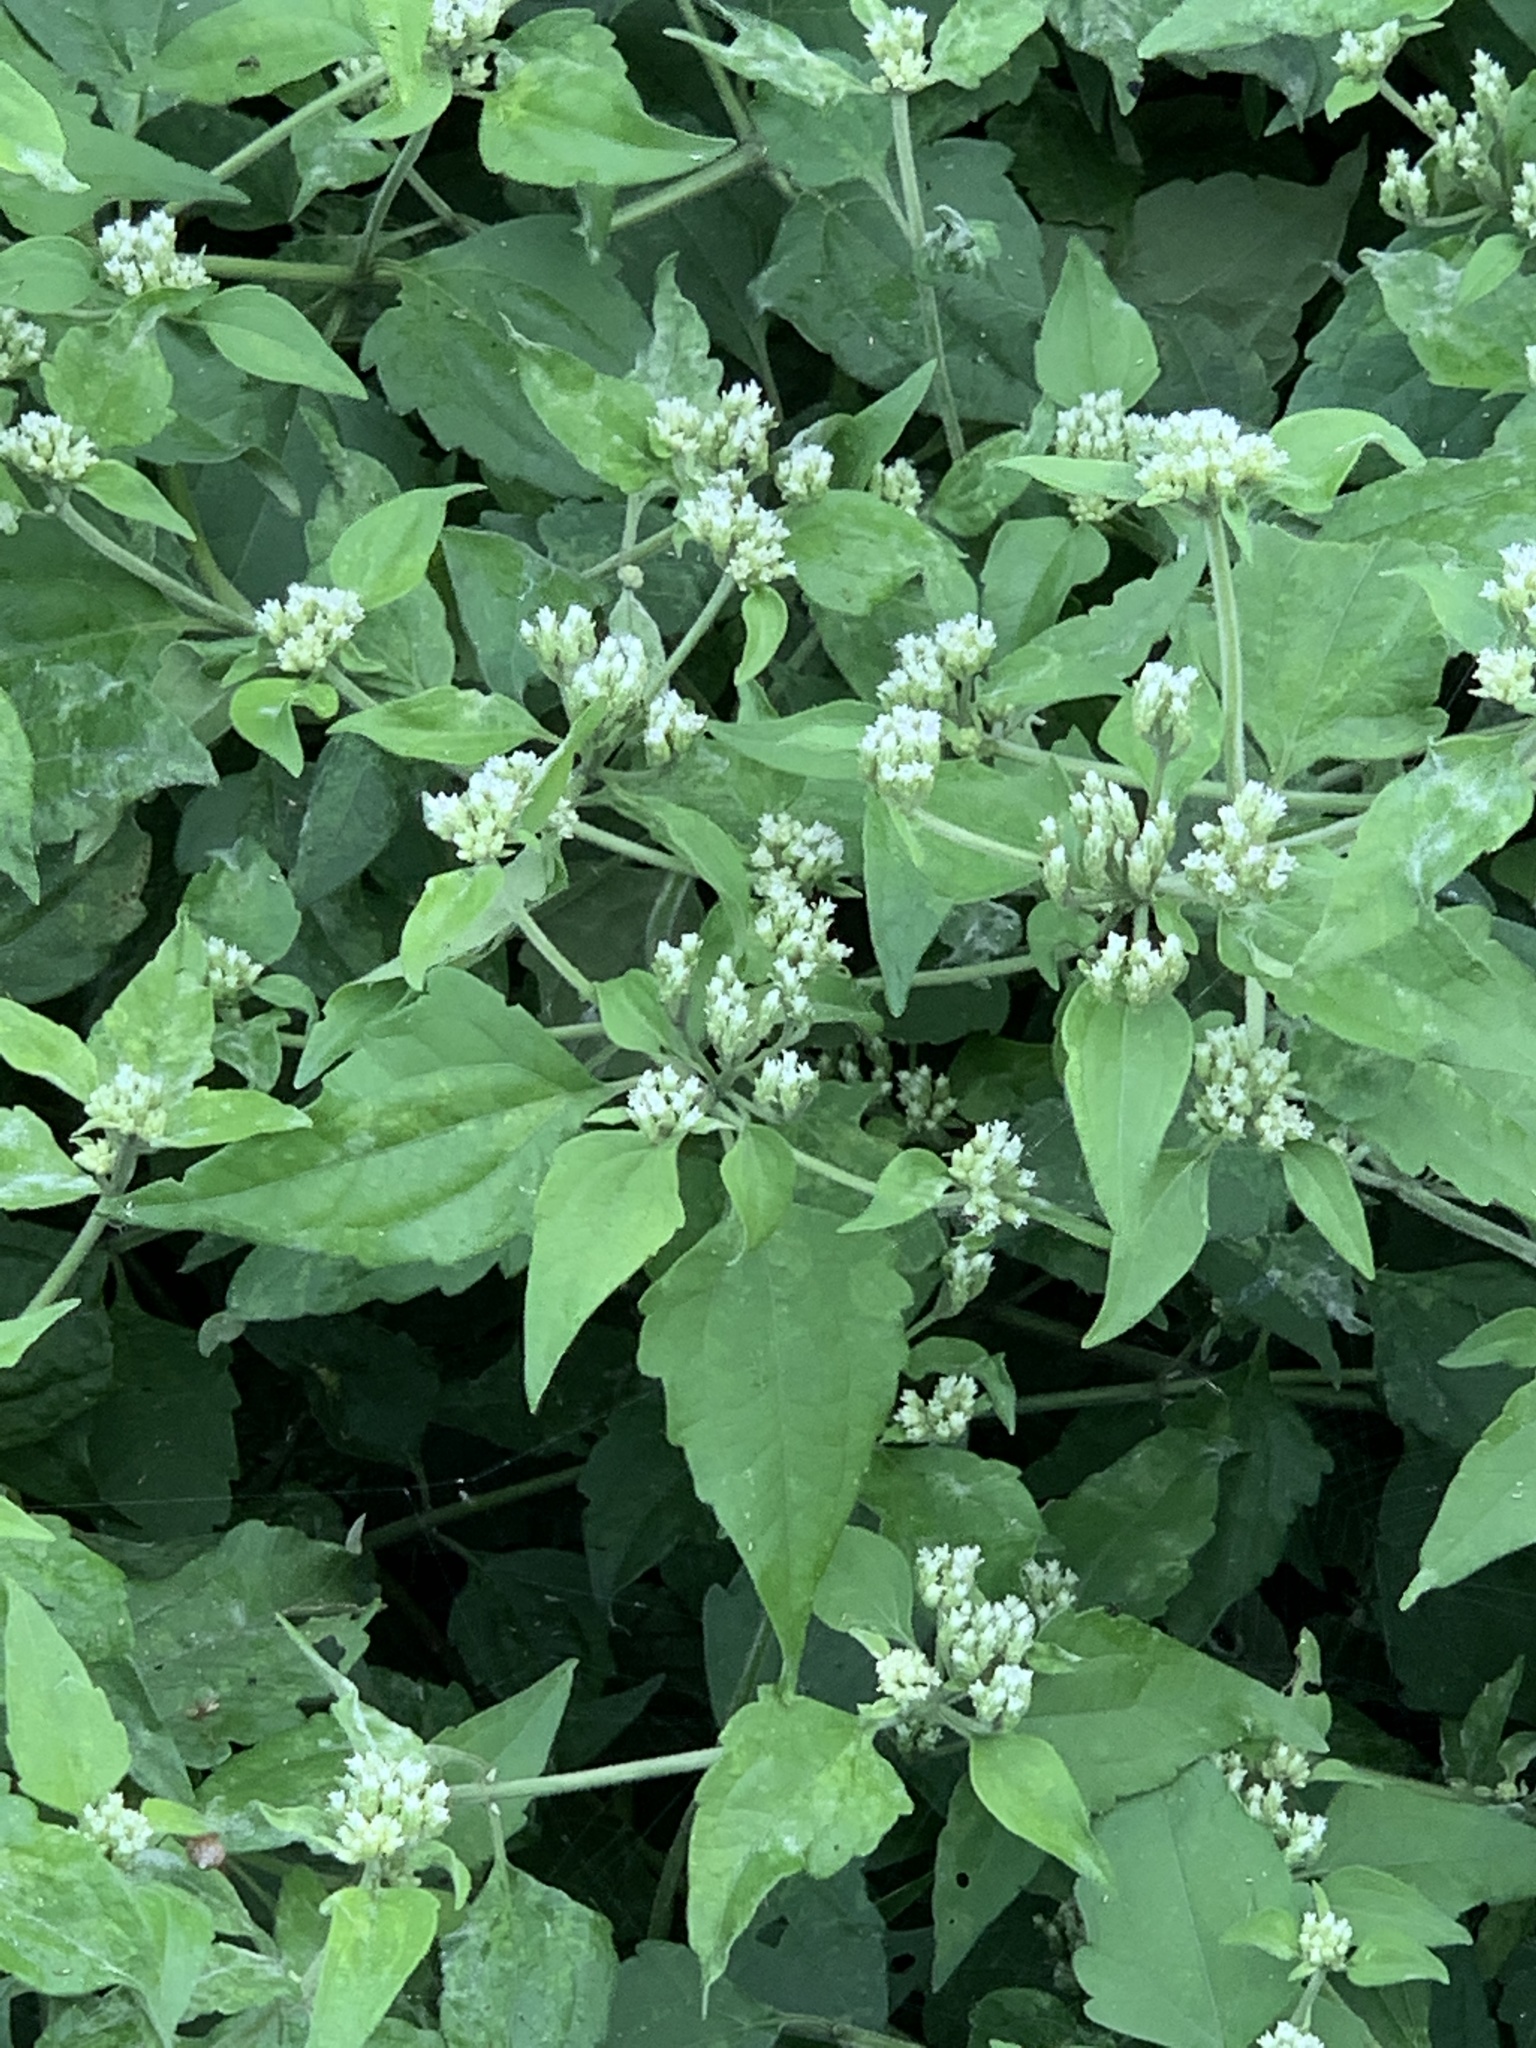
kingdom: Plantae
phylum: Tracheophyta
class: Magnoliopsida
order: Asterales
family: Asteraceae
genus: Mikania
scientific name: Mikania scandens
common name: Climbing hempvine
